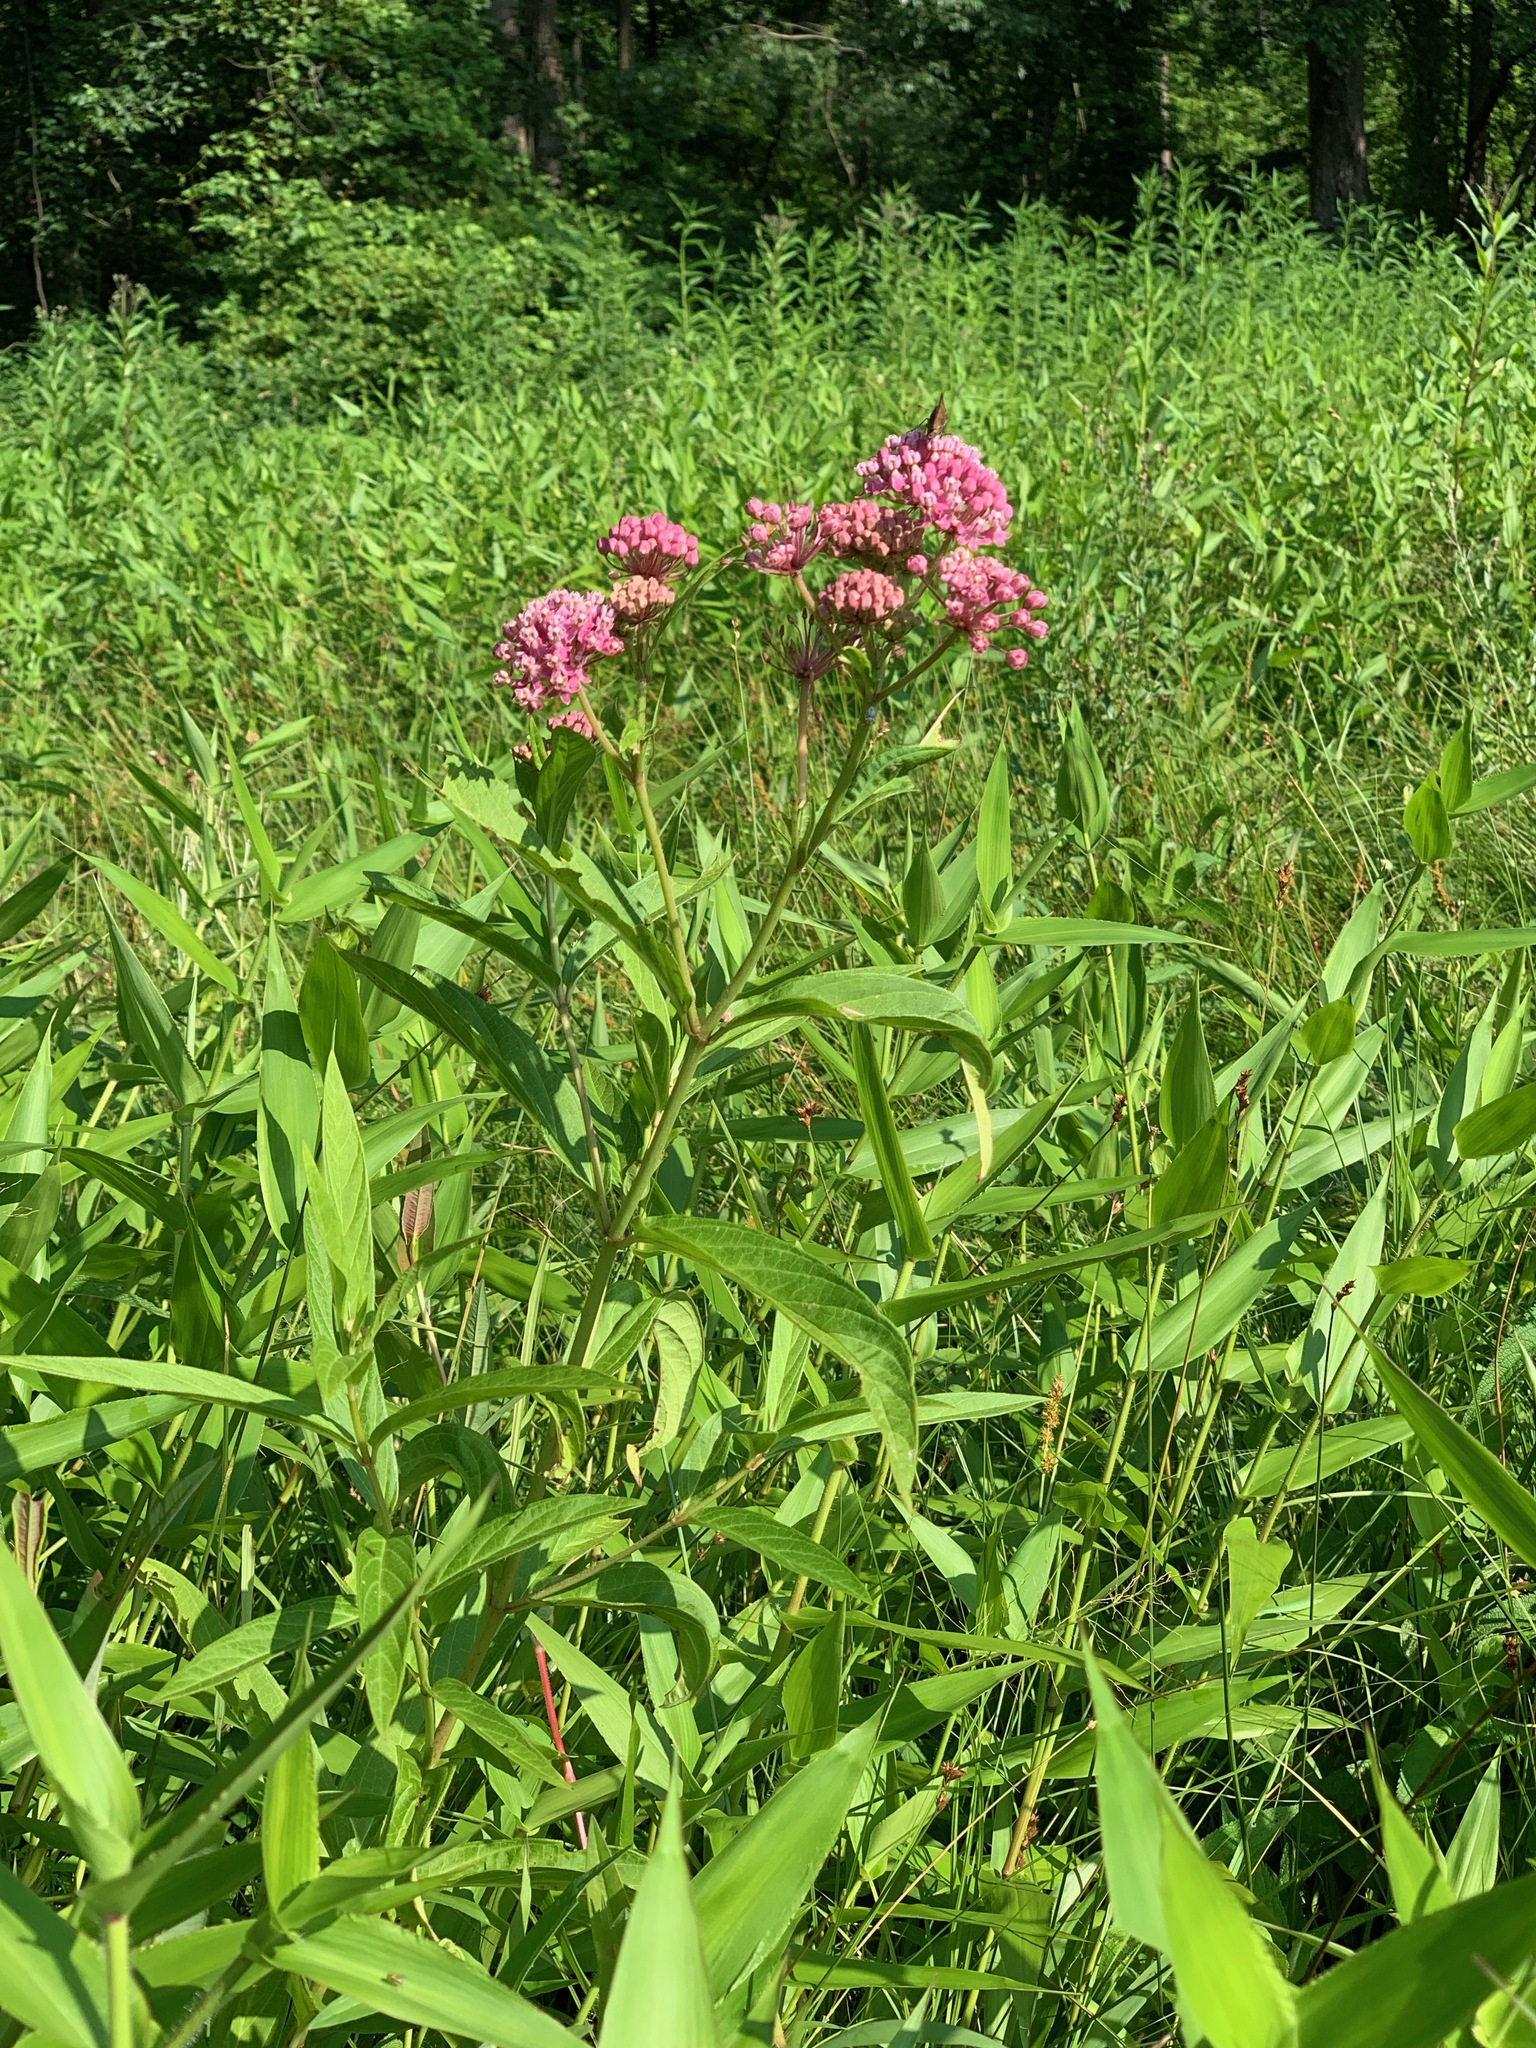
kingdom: Plantae
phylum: Tracheophyta
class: Magnoliopsida
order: Gentianales
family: Apocynaceae
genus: Asclepias
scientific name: Asclepias incarnata
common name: Swamp milkweed
